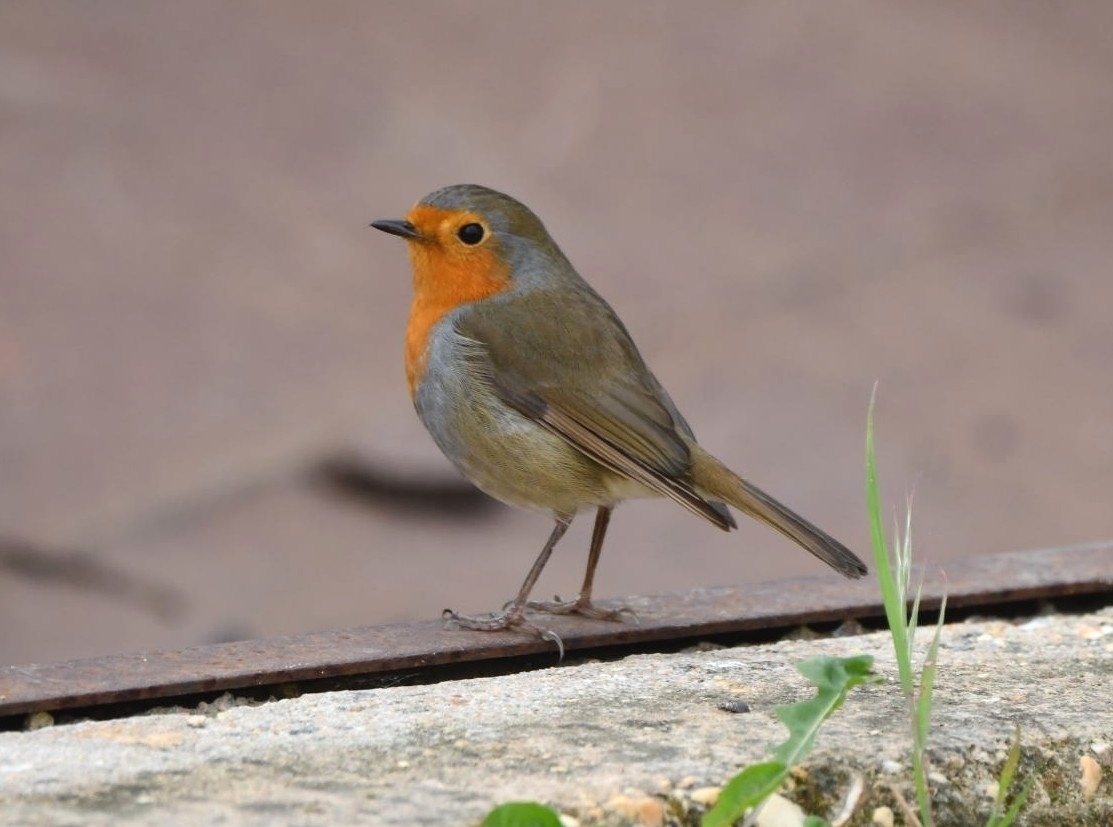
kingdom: Animalia
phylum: Chordata
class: Aves
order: Passeriformes
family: Muscicapidae
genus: Erithacus
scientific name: Erithacus rubecula
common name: European robin
